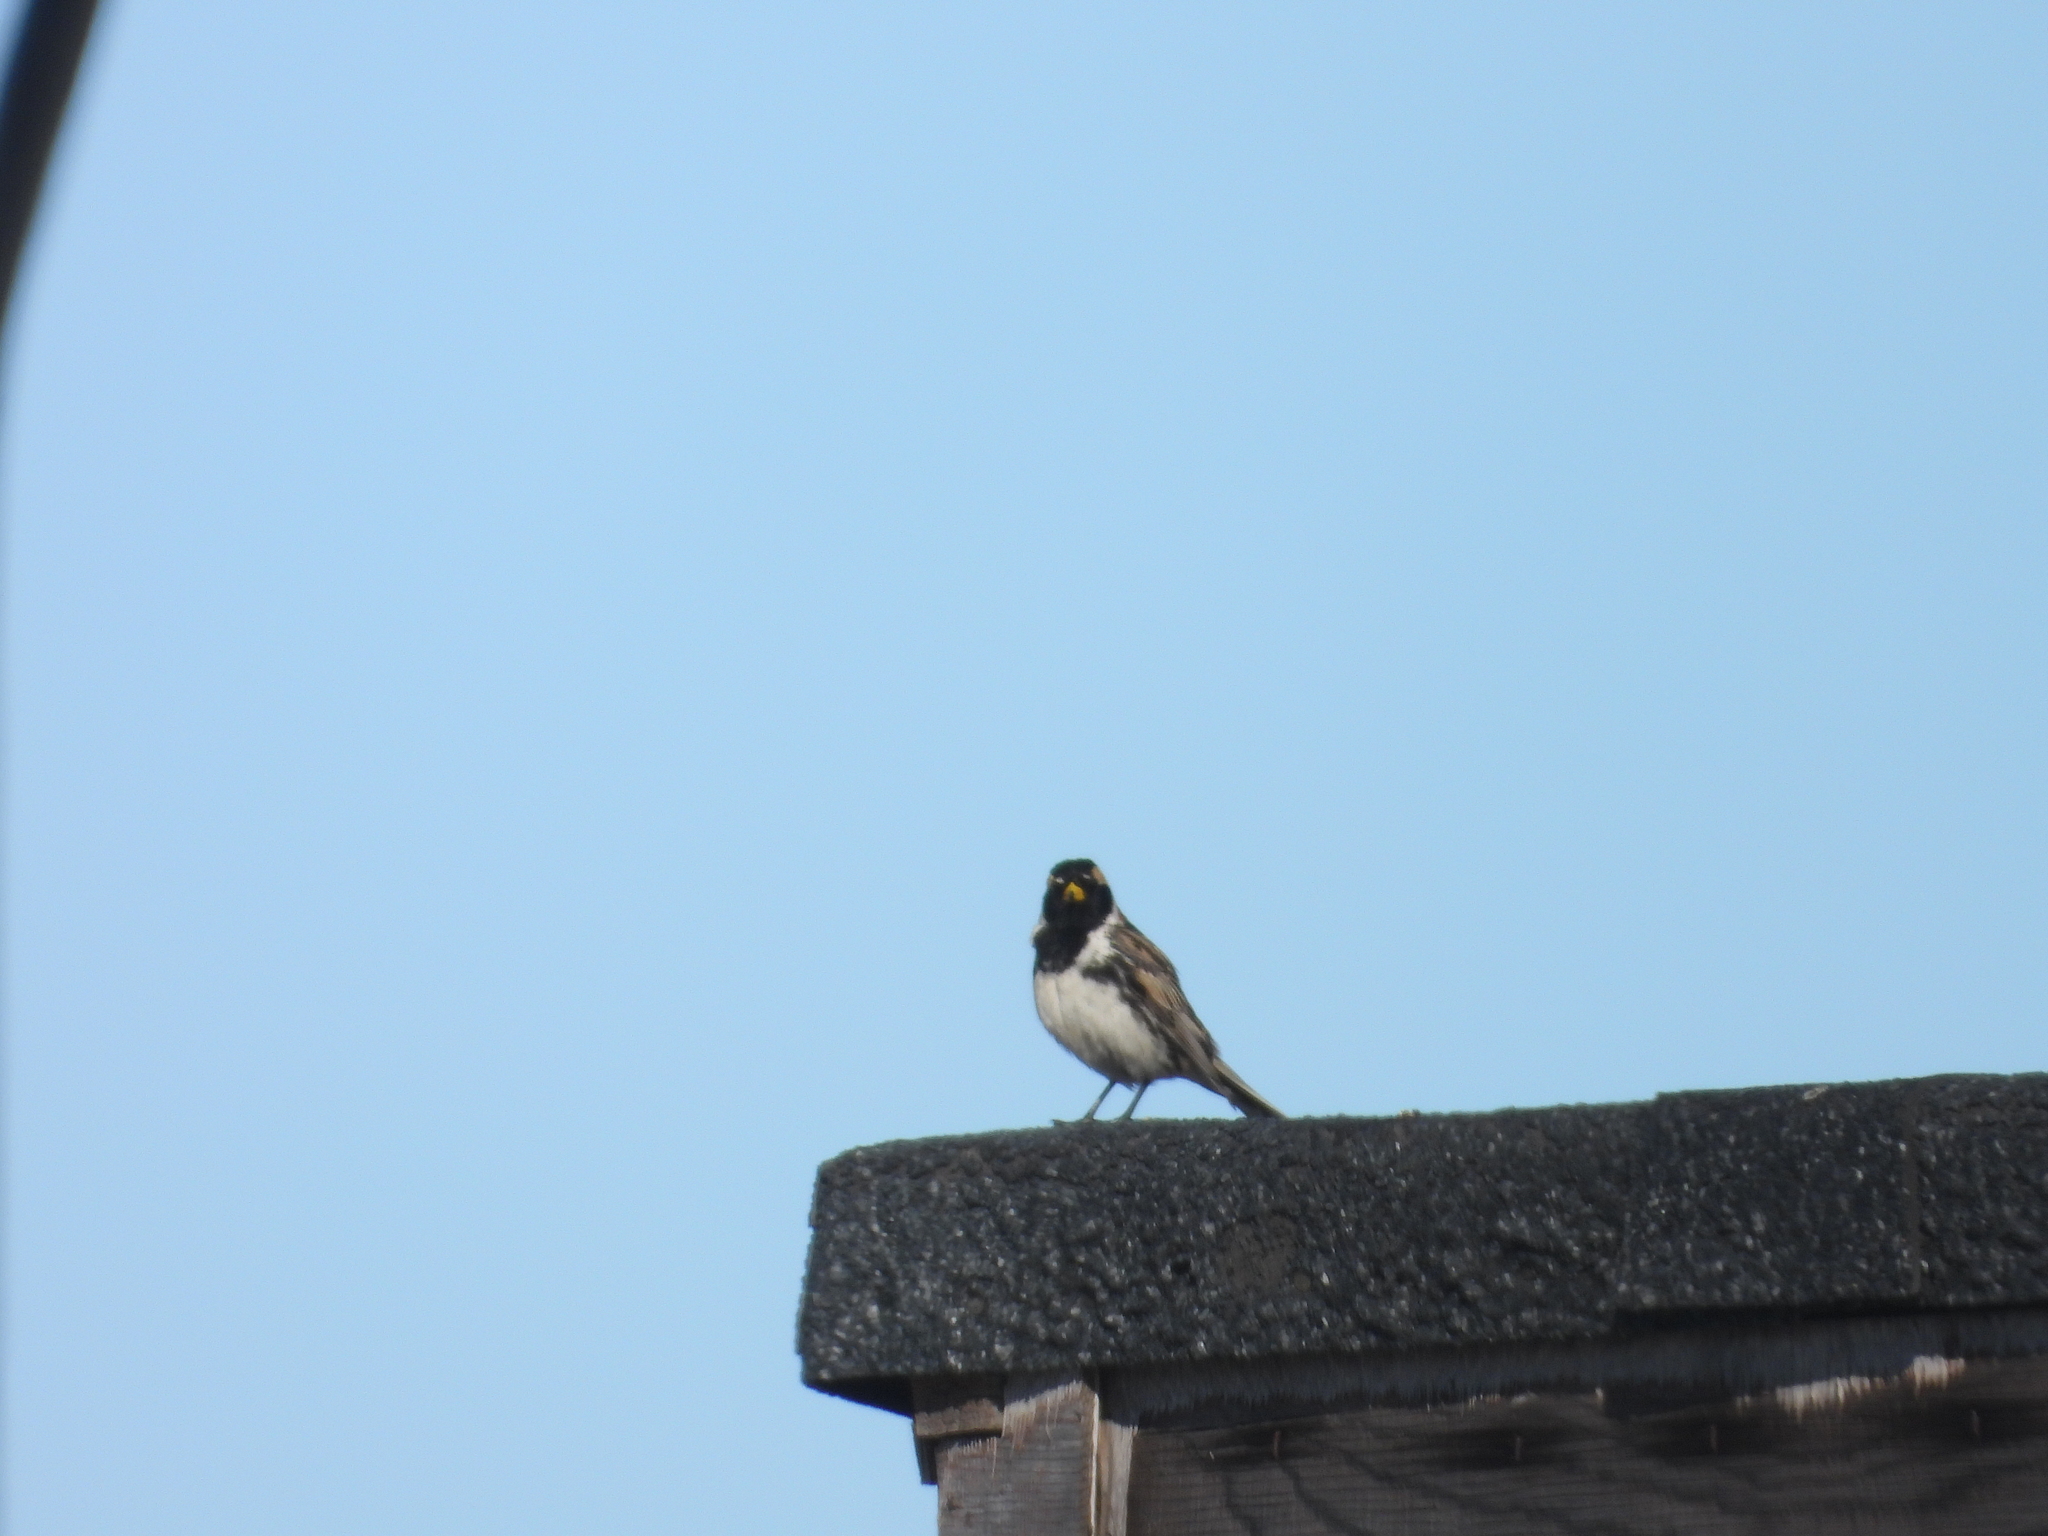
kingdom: Animalia
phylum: Chordata
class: Aves
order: Passeriformes
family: Calcariidae
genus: Calcarius
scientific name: Calcarius lapponicus
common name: Lapland longspur
